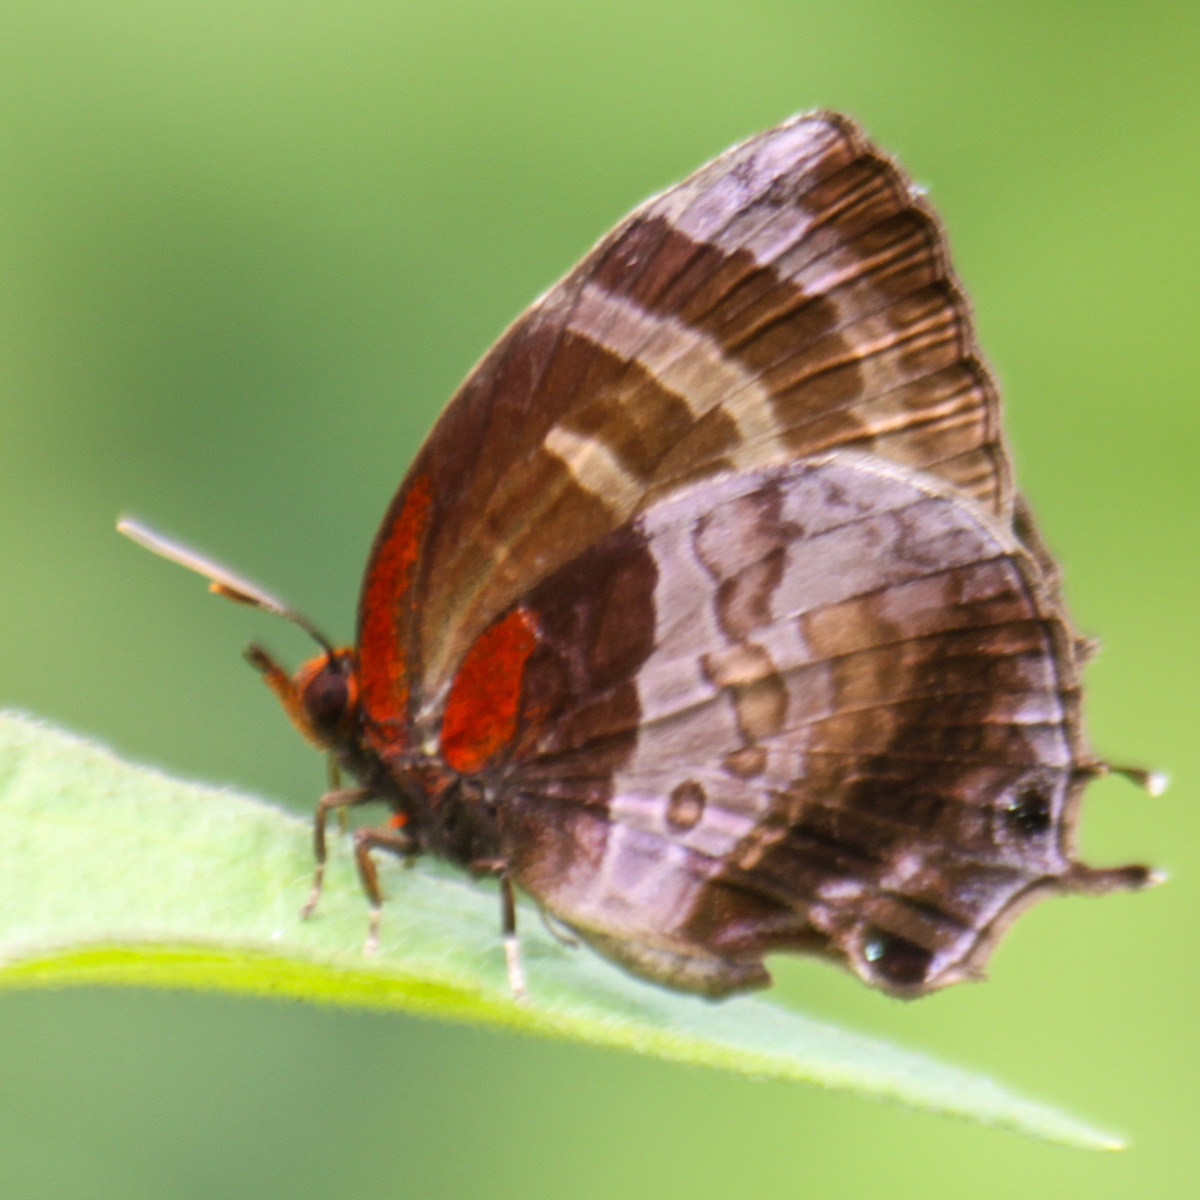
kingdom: Animalia
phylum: Arthropoda
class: Insecta
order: Lepidoptera
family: Lycaenidae
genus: Flos
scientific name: Flos apidanus
